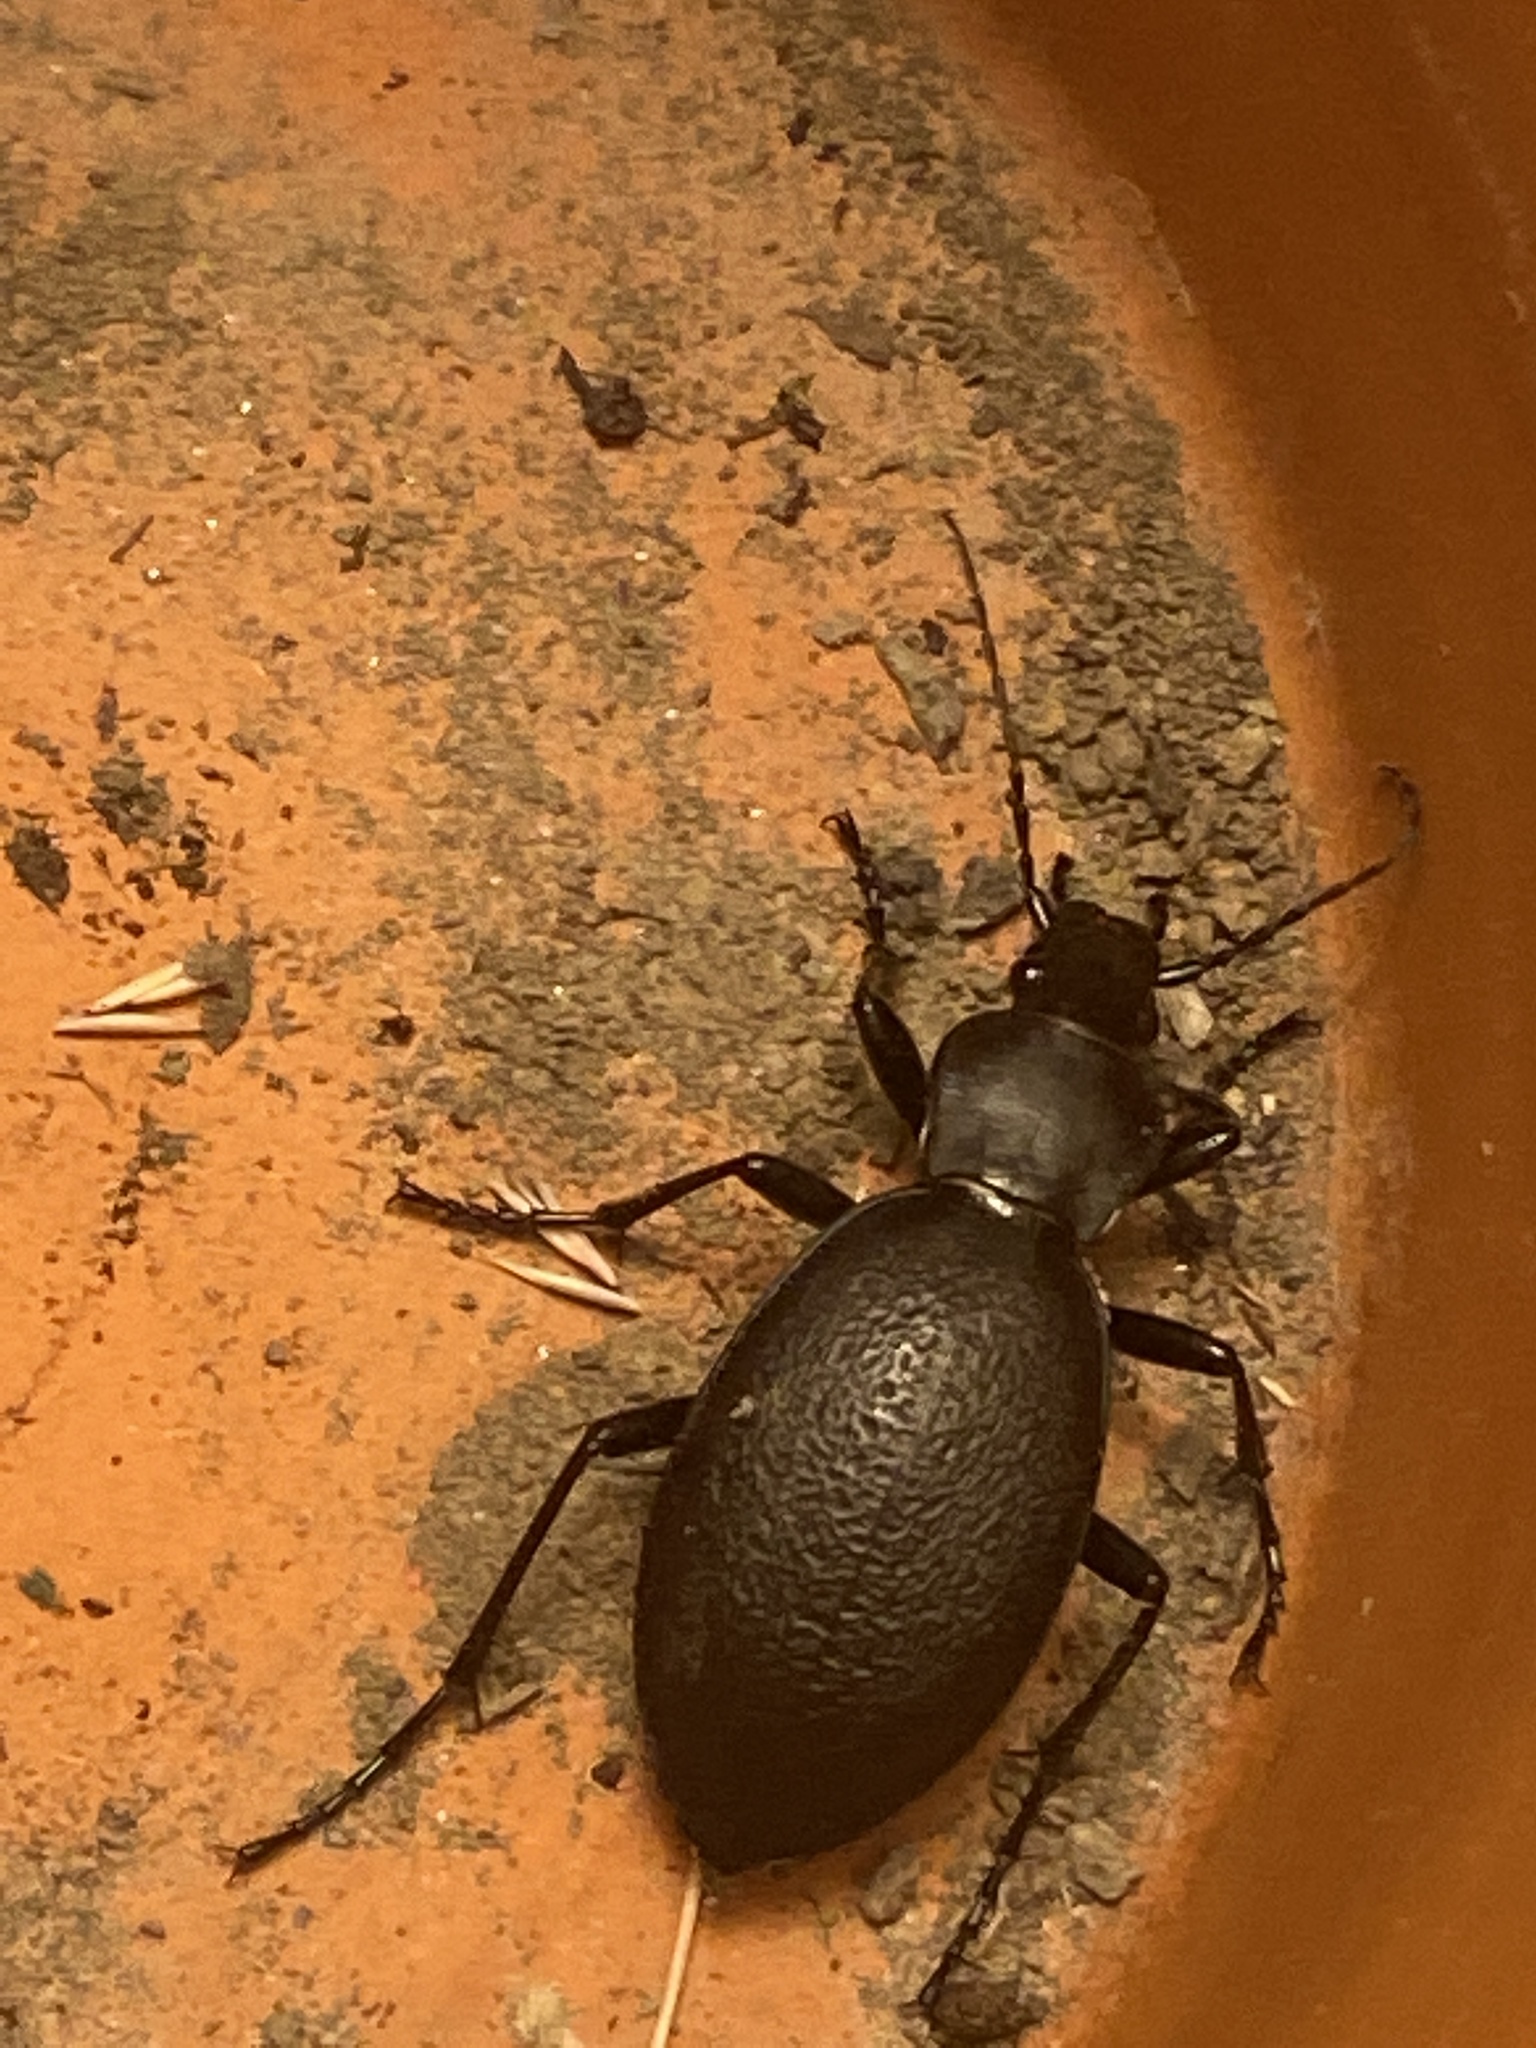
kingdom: Animalia
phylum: Arthropoda
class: Insecta
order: Coleoptera
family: Carabidae
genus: Carabus
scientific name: Carabus coriaceus
